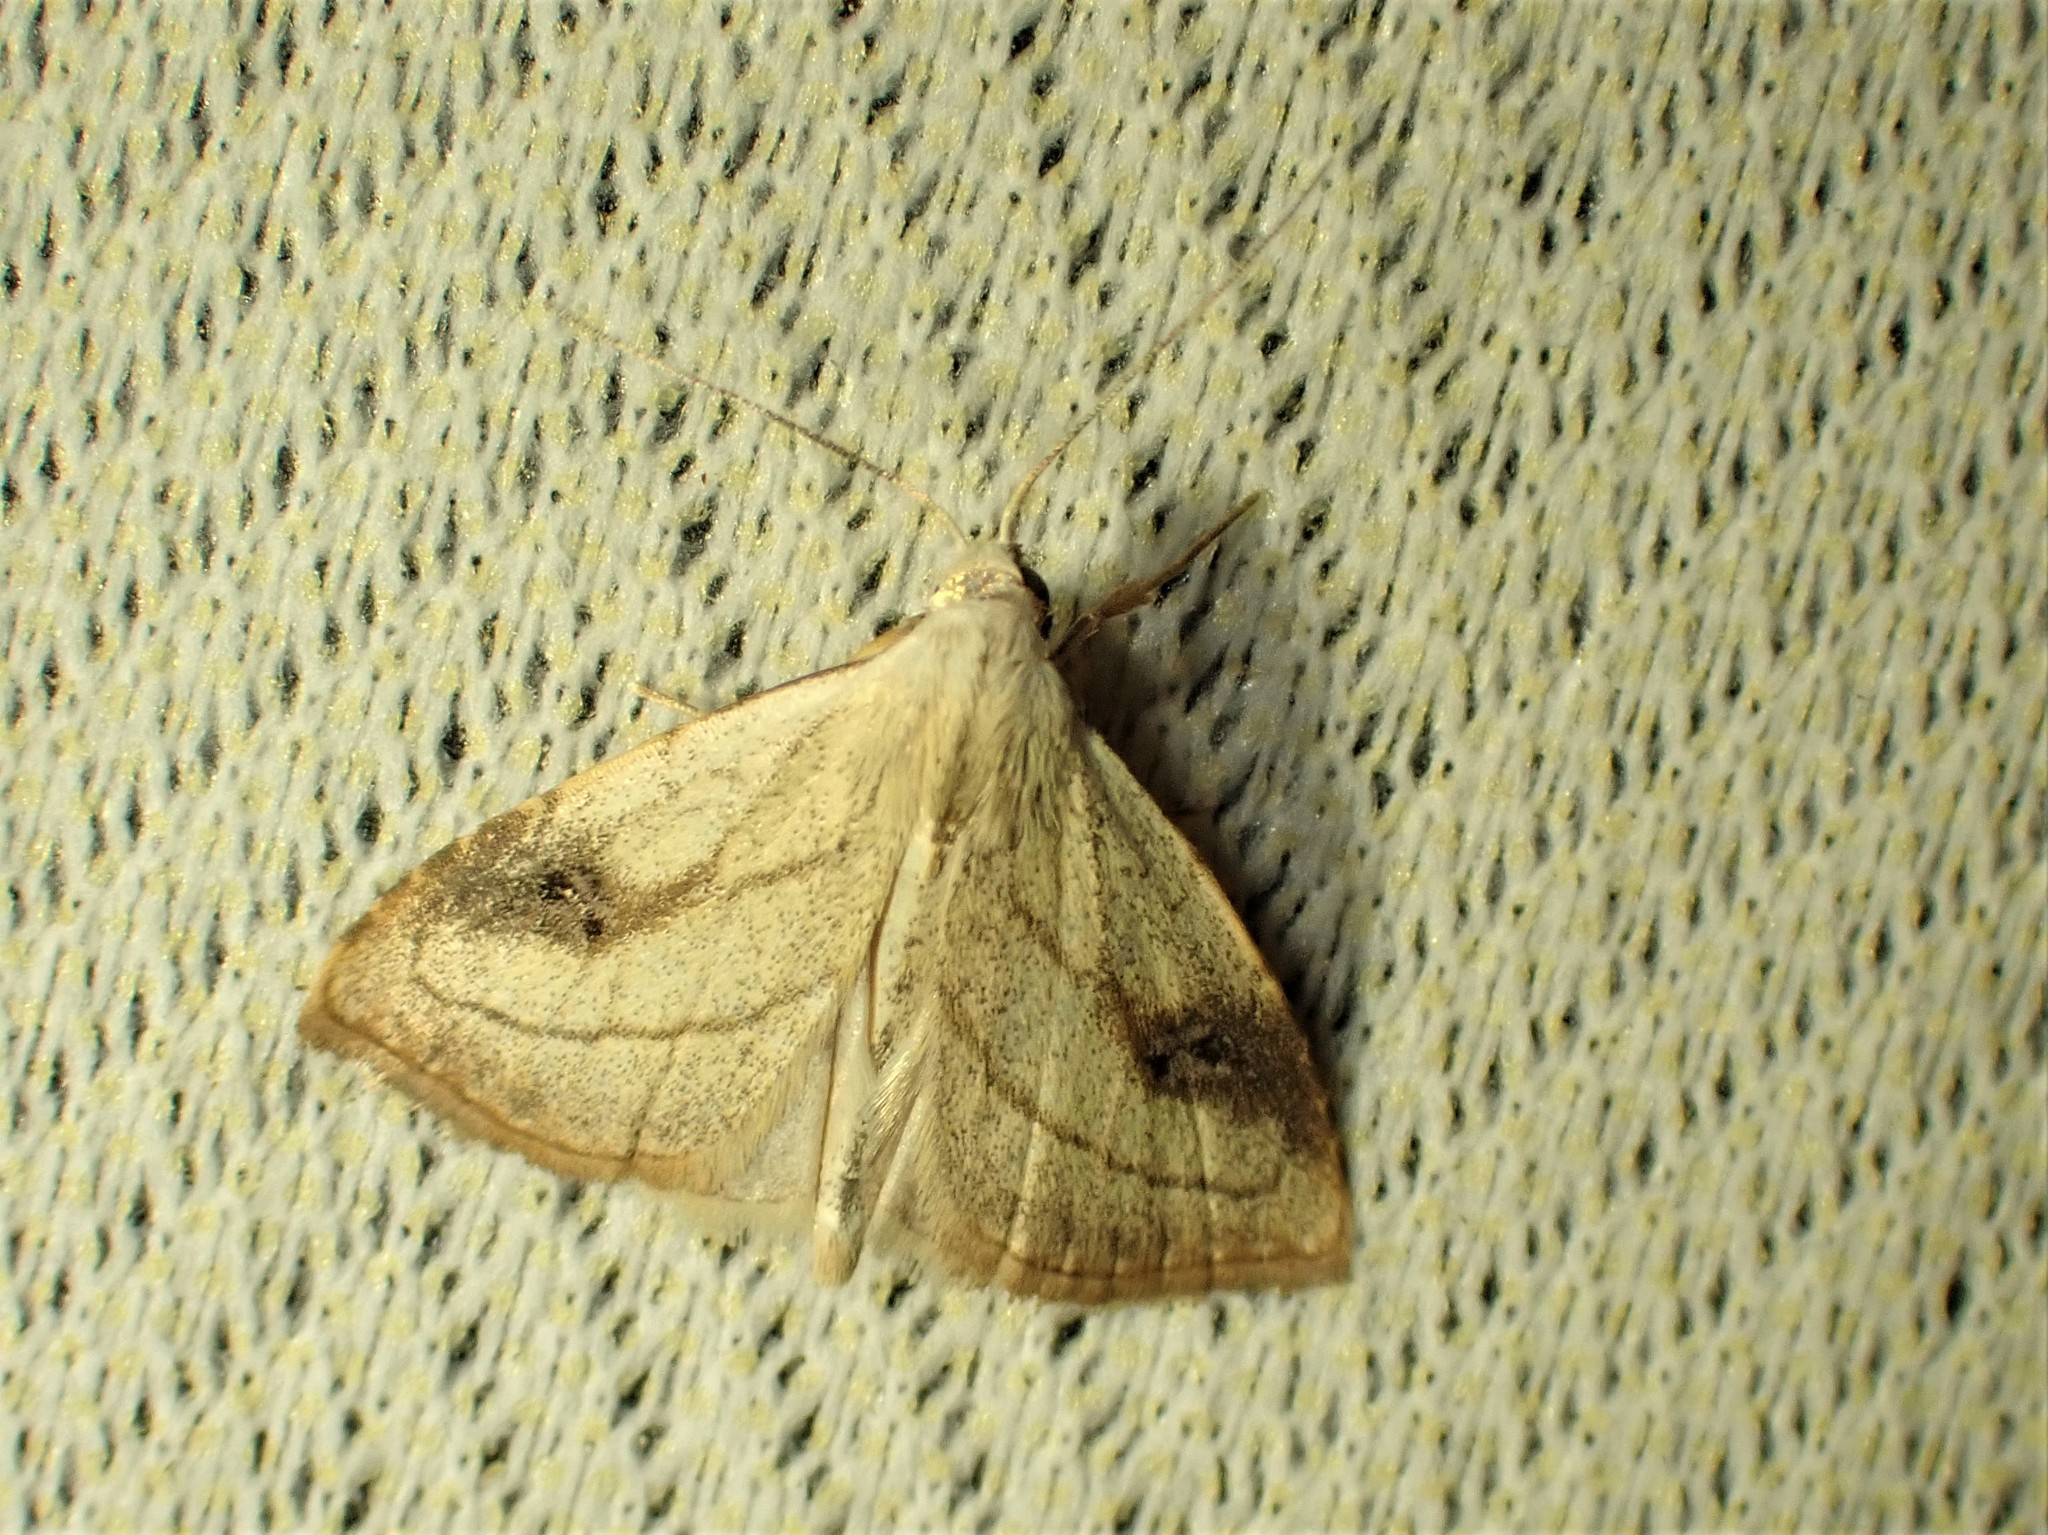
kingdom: Animalia
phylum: Arthropoda
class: Insecta
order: Lepidoptera
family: Erebidae
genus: Rivula
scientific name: Rivula propinqualis
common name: Spotted grass moth
